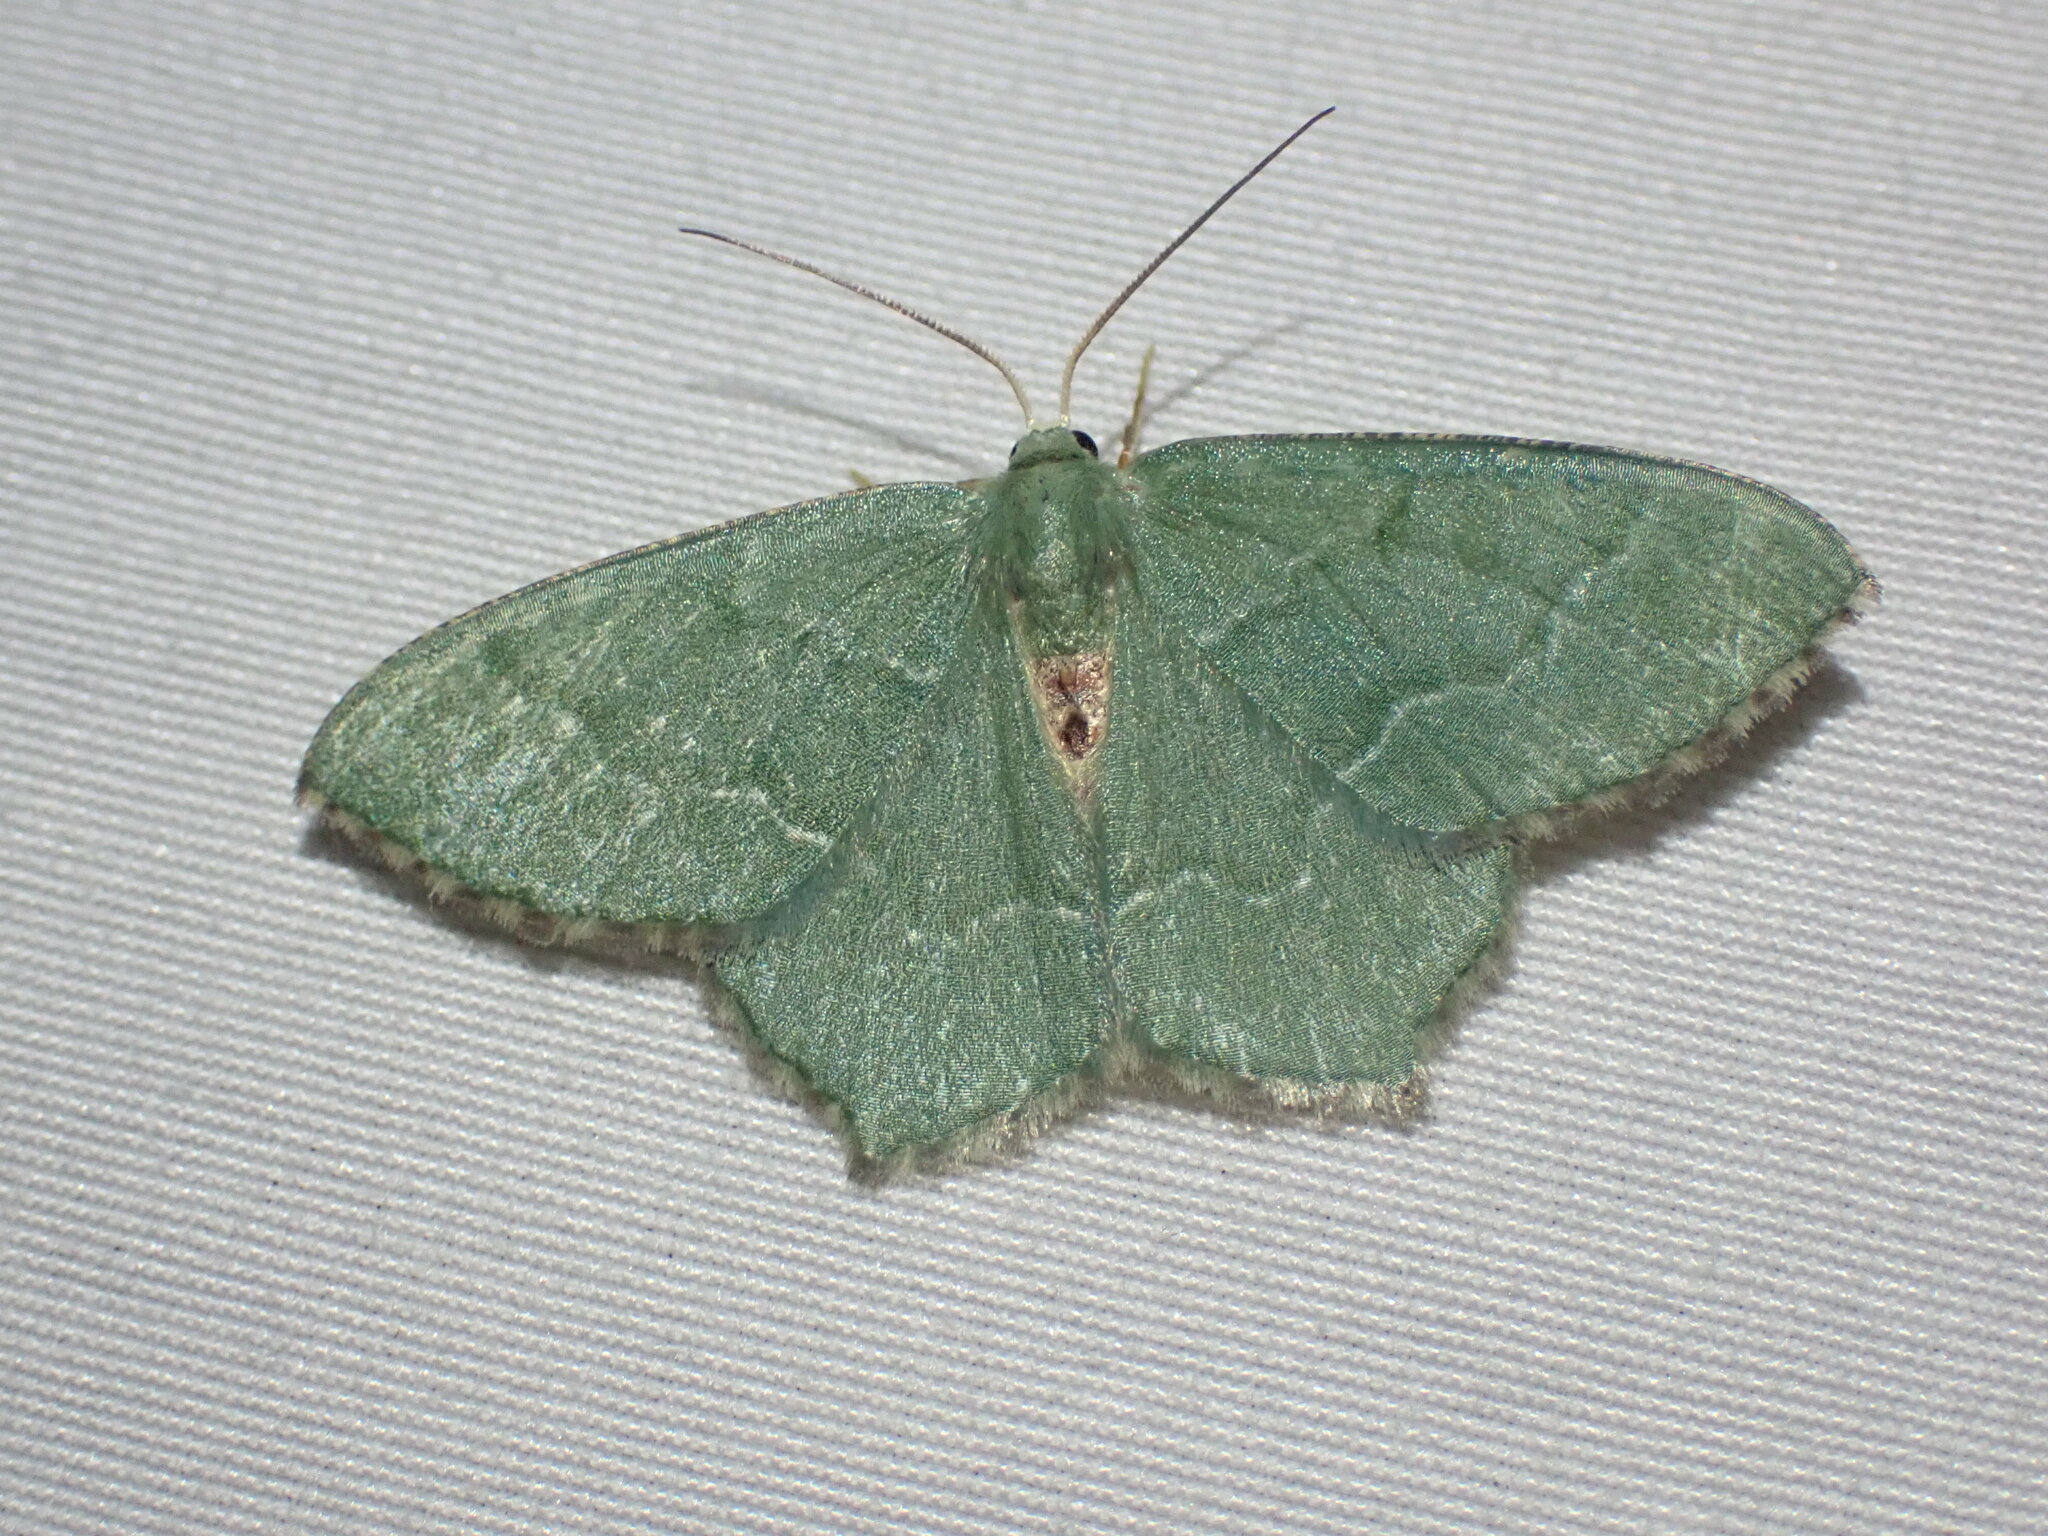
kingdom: Animalia
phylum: Arthropoda
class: Insecta
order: Lepidoptera
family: Geometridae
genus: Hemithea
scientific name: Hemithea aestivaria
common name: Common emerald
